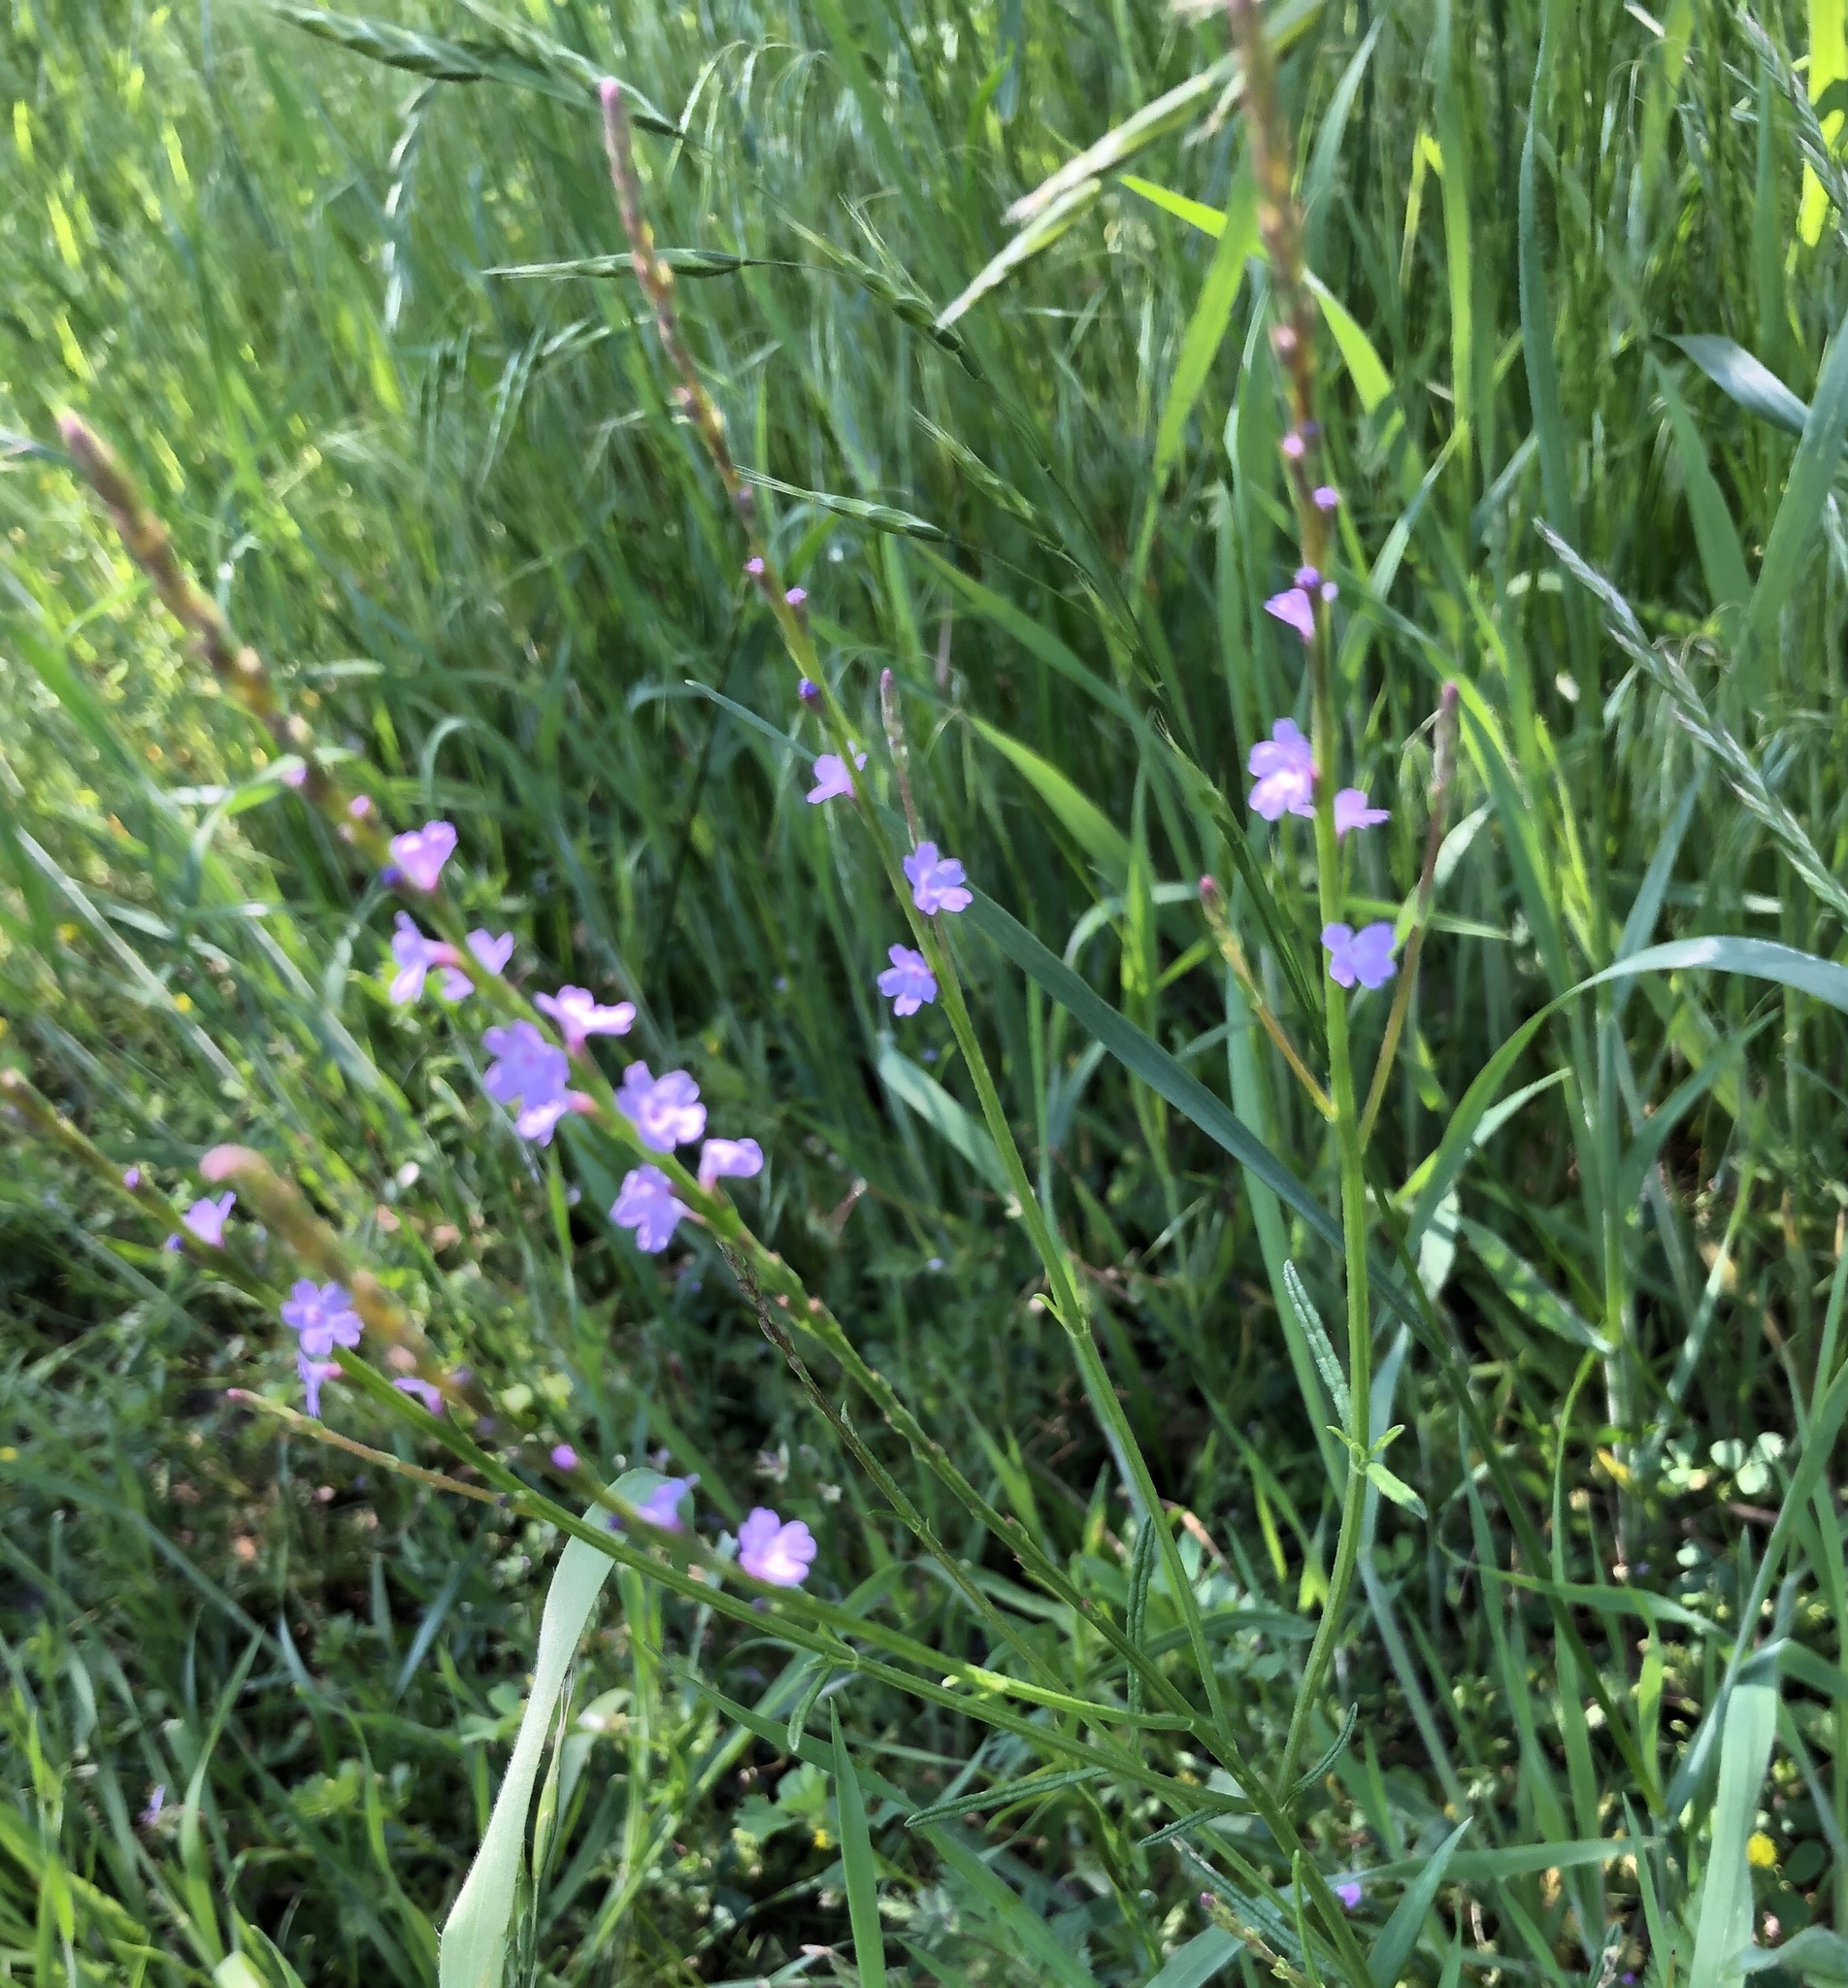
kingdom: Plantae
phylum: Tracheophyta
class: Magnoliopsida
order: Lamiales
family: Verbenaceae
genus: Verbena
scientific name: Verbena halei
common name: Texas vervain
